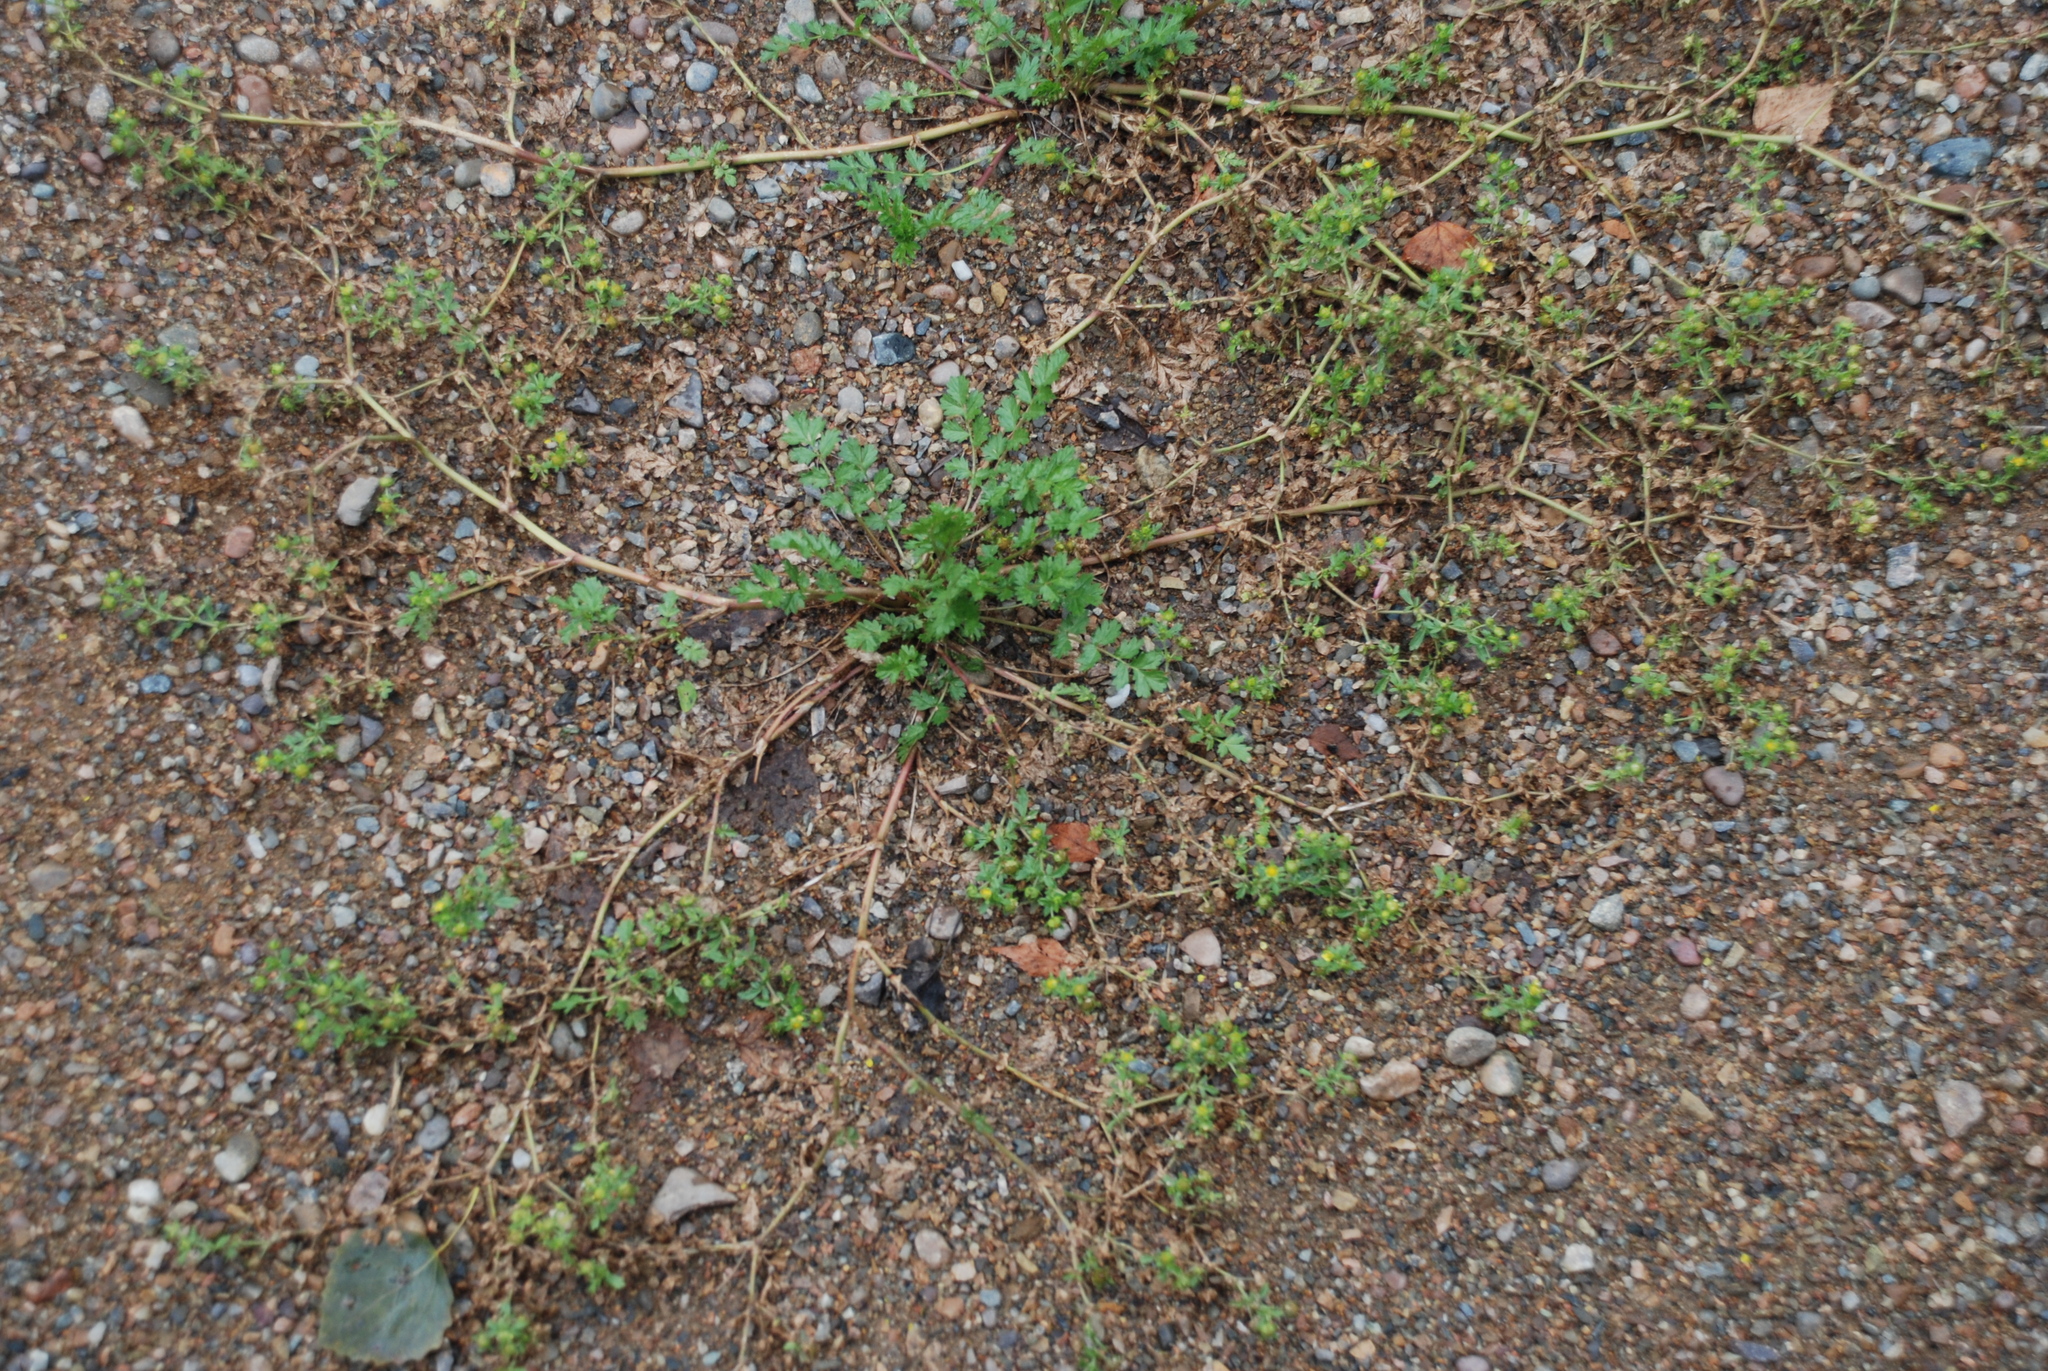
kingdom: Plantae
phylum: Tracheophyta
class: Magnoliopsida
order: Rosales
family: Rosaceae
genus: Potentilla
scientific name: Potentilla supina
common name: Prostrate cinquefoil
